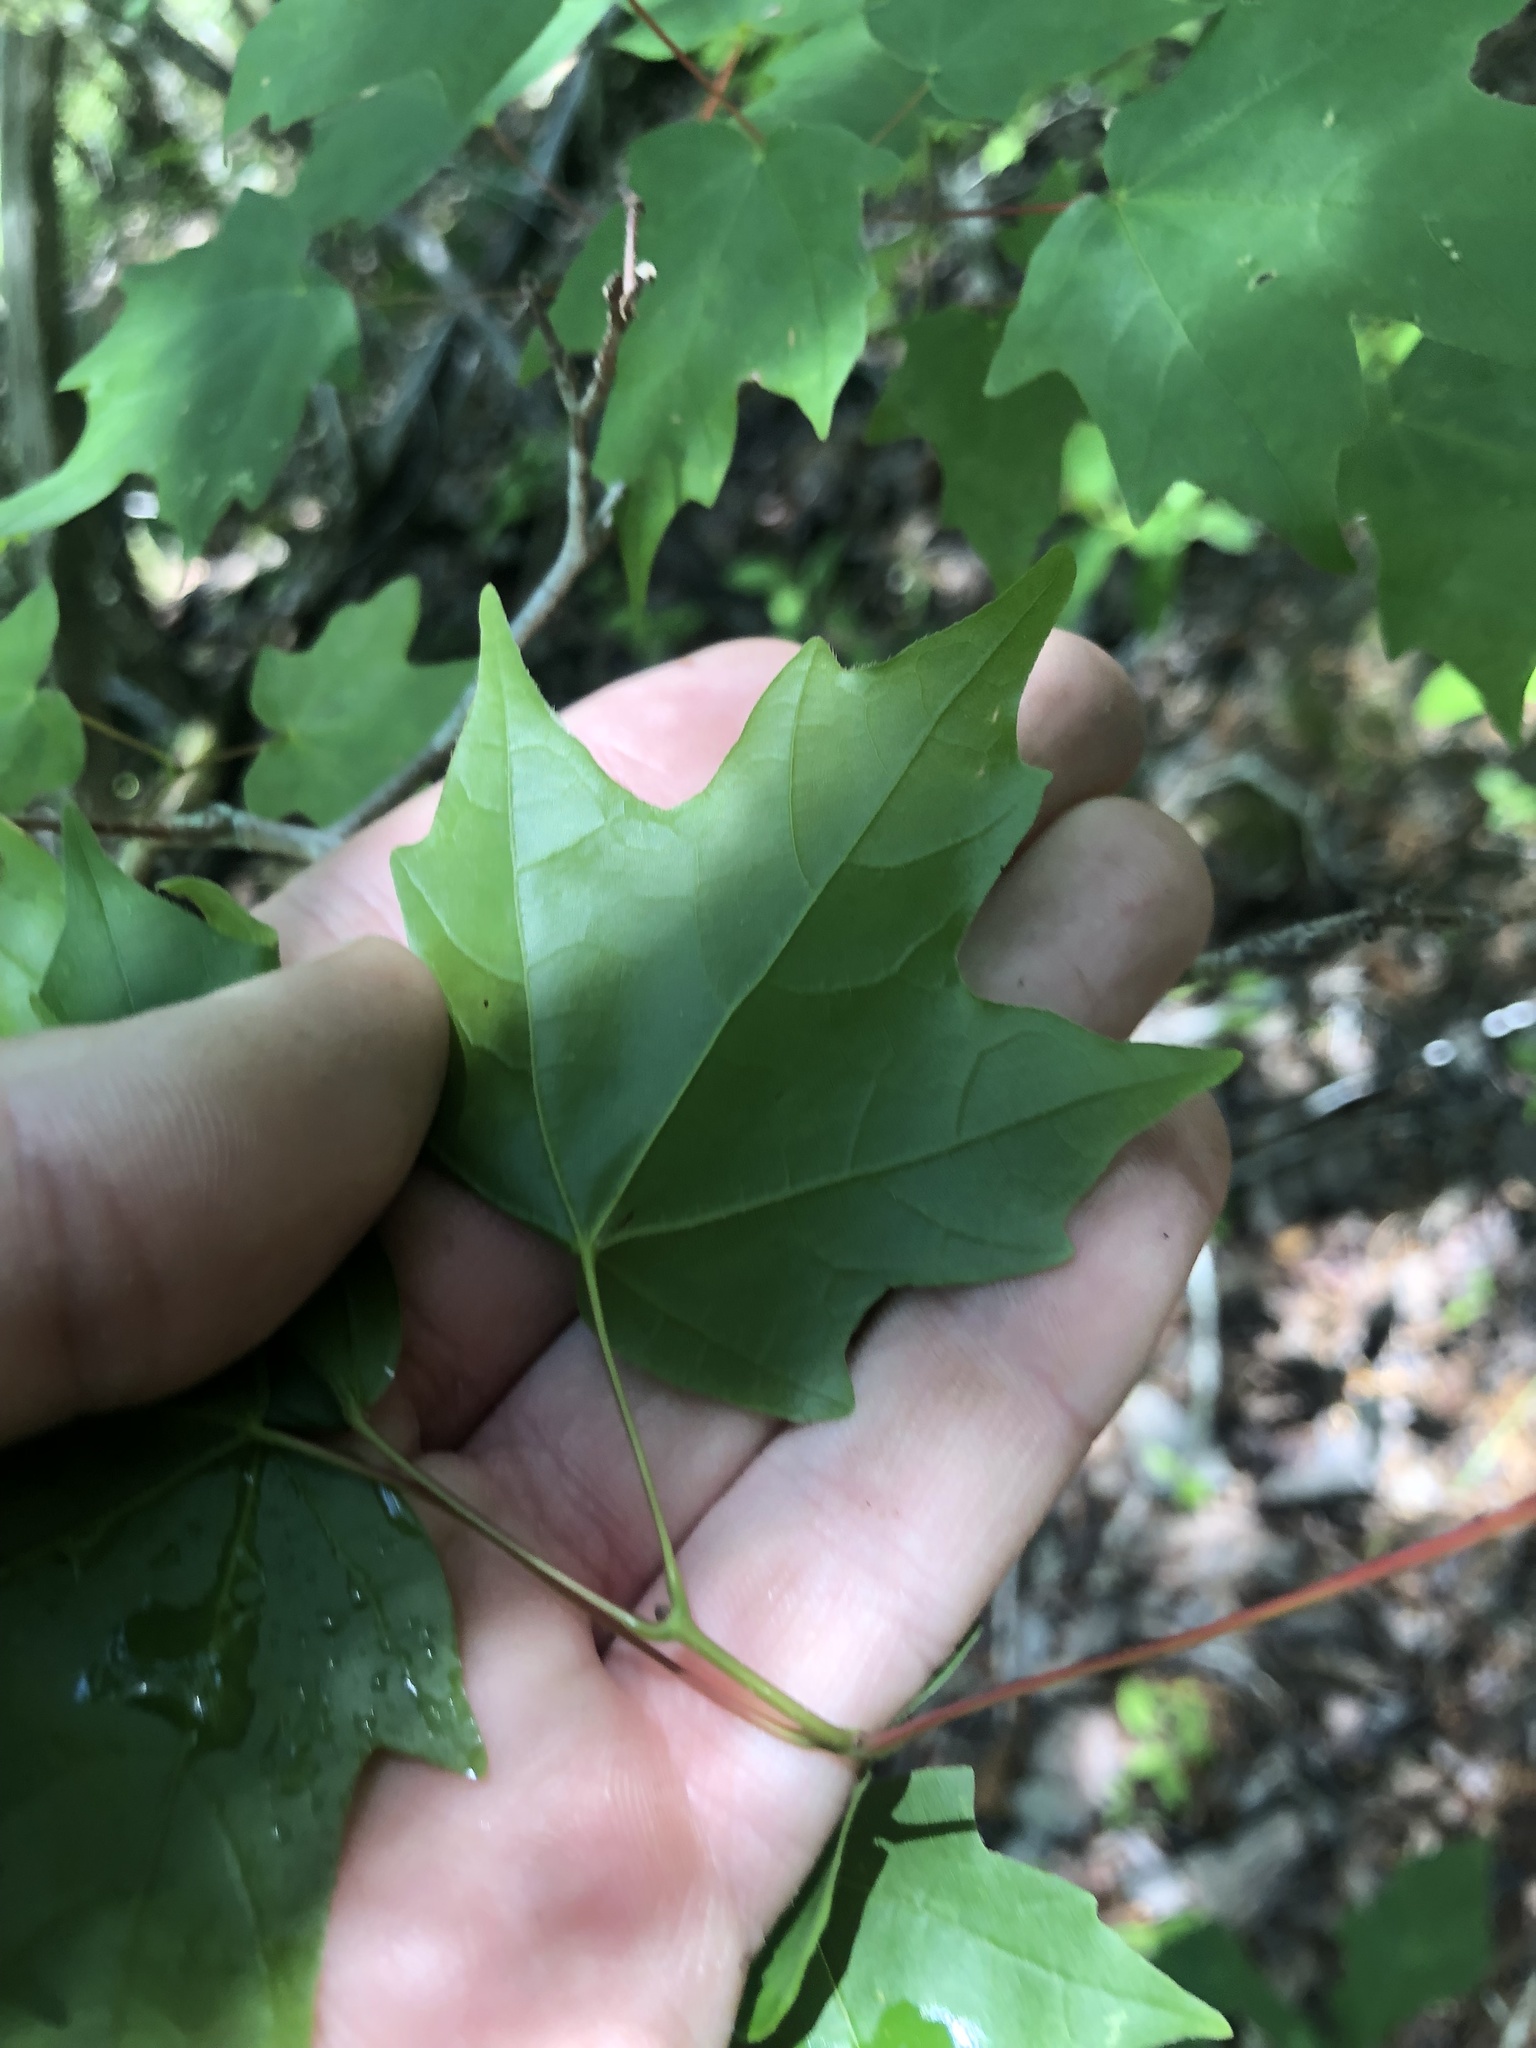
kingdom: Plantae
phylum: Tracheophyta
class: Magnoliopsida
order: Sapindales
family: Sapindaceae
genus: Acer
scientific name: Acer leucoderme
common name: Chalk maple
